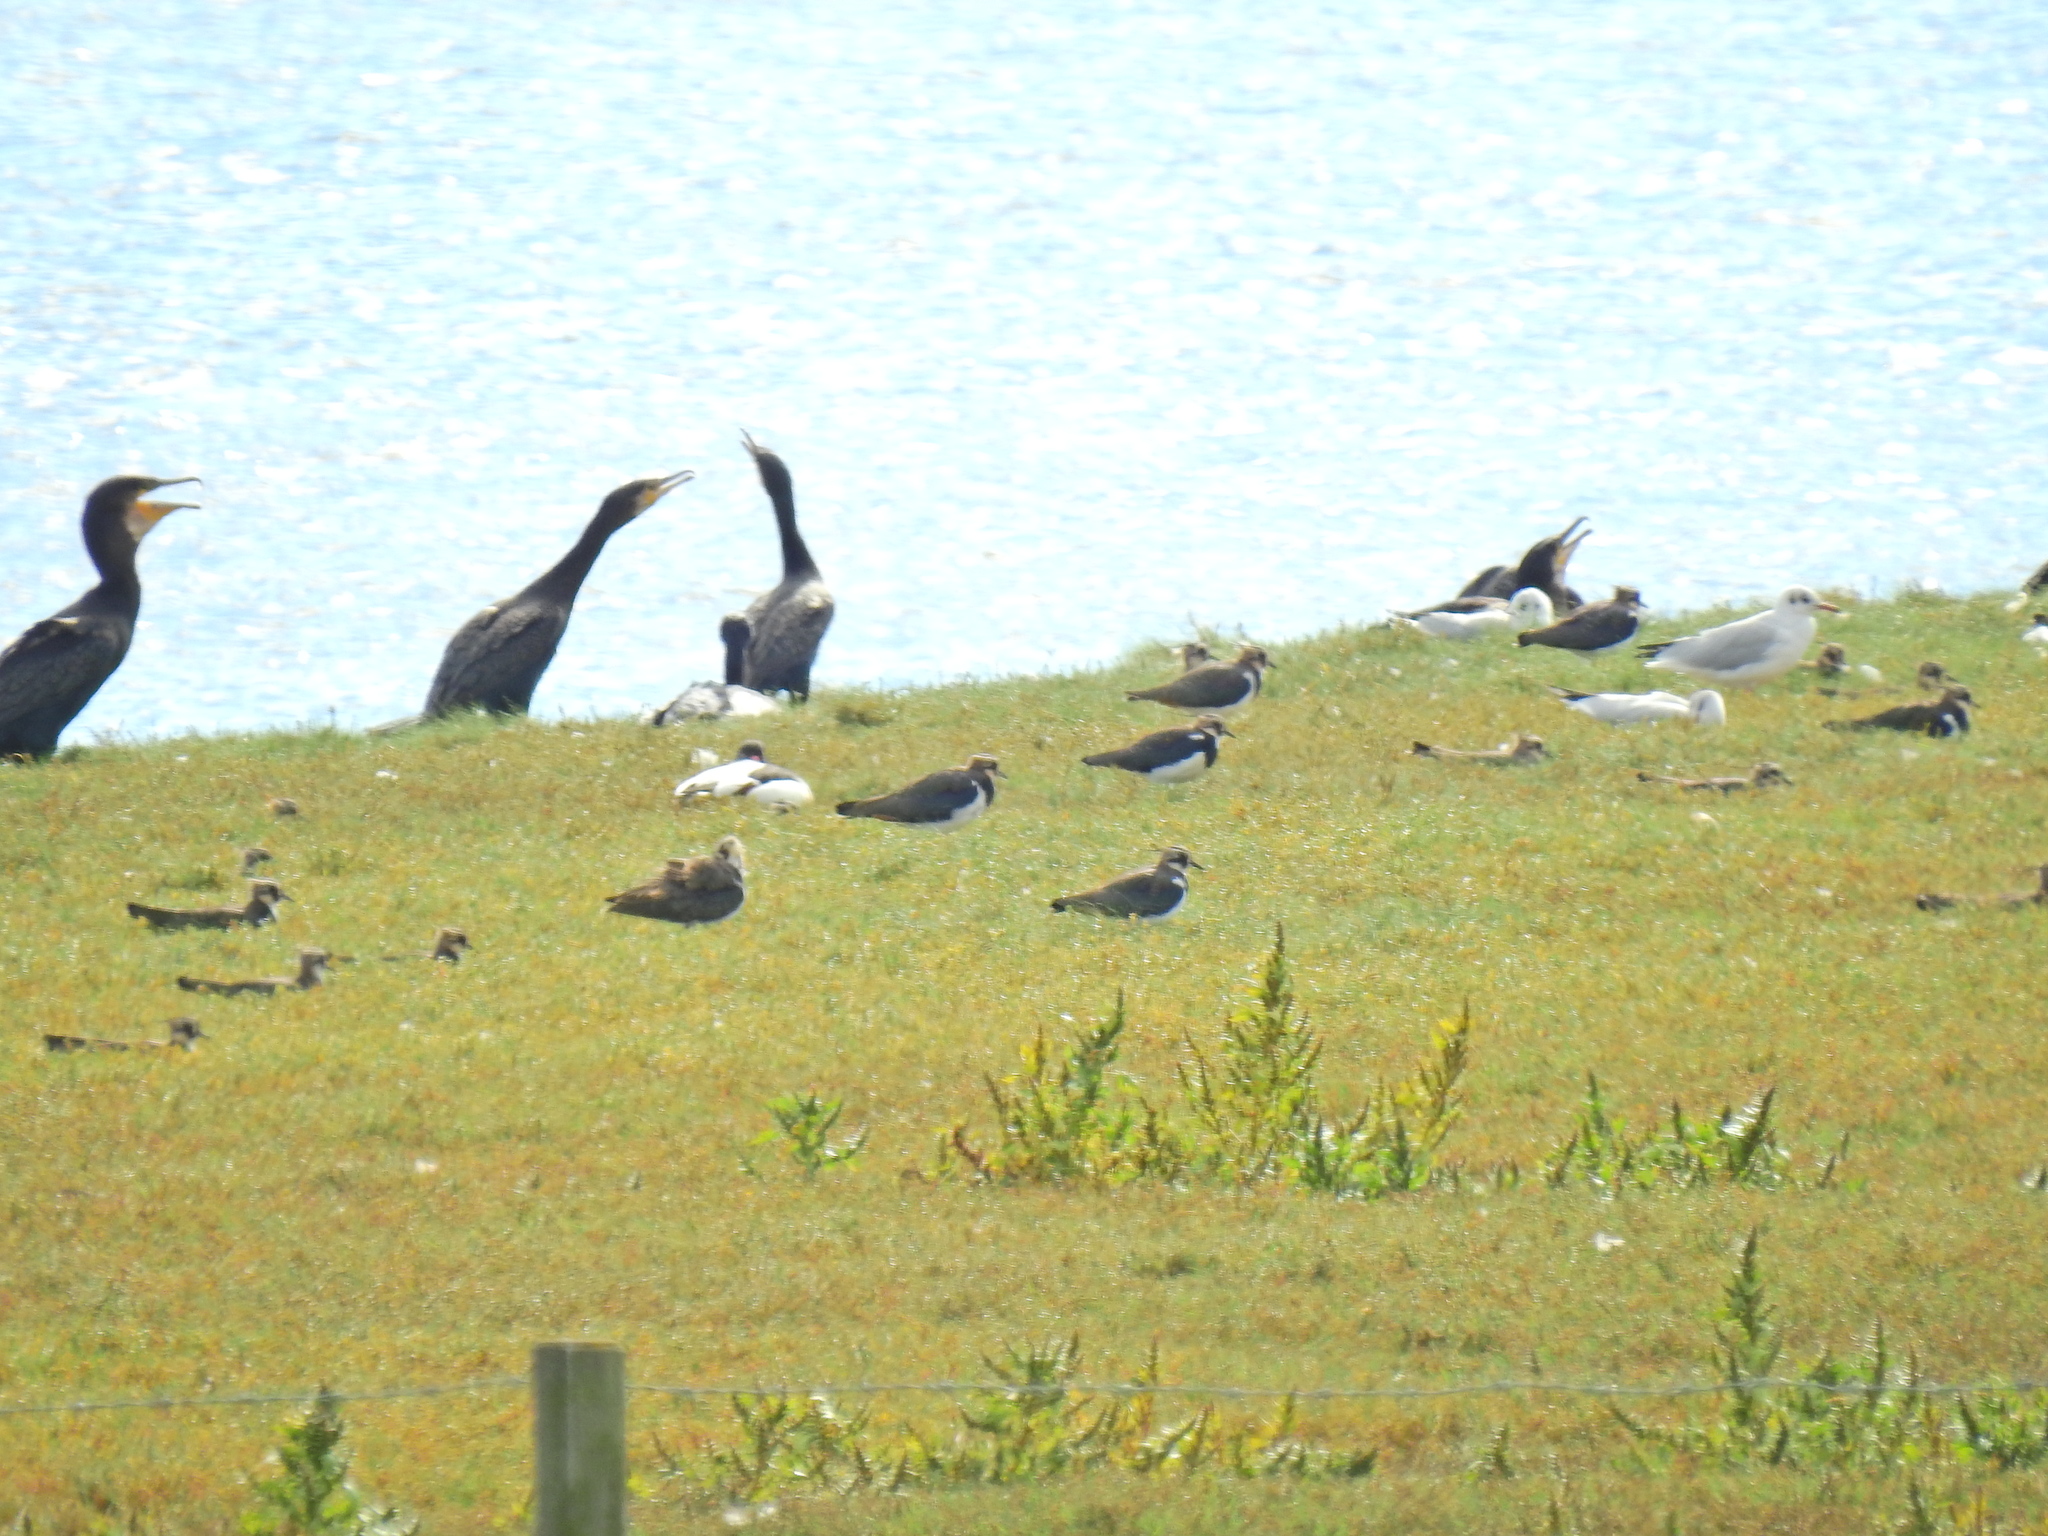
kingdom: Animalia
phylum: Chordata
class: Aves
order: Suliformes
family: Phalacrocoracidae
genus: Phalacrocorax
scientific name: Phalacrocorax carbo
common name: Great cormorant
